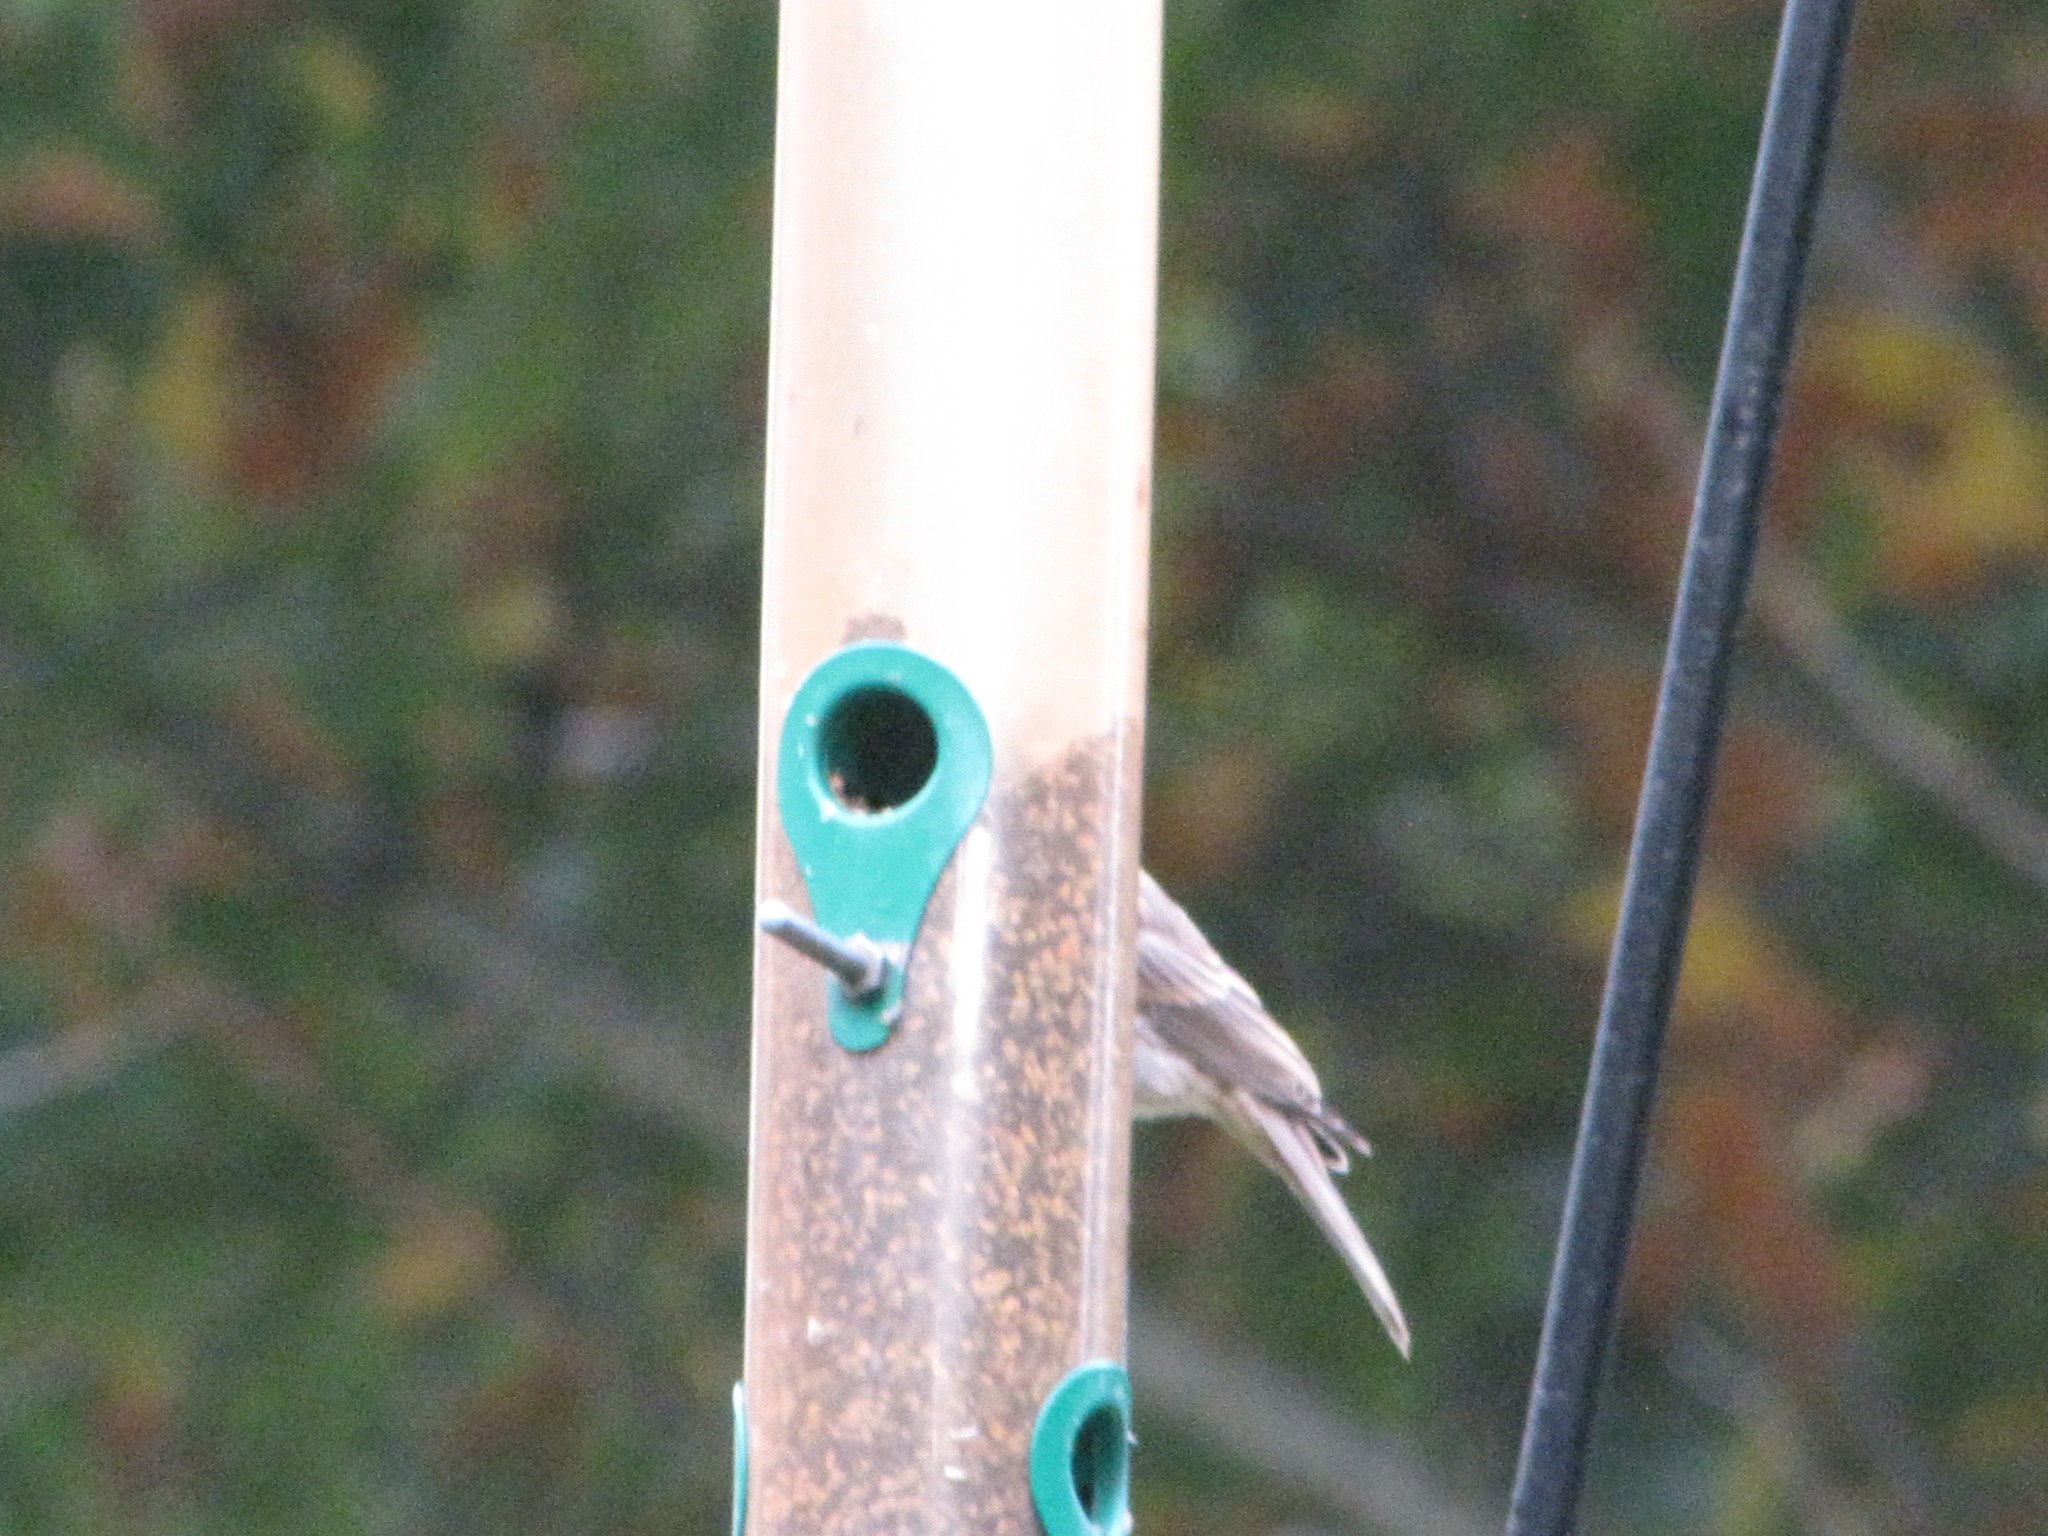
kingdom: Animalia
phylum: Chordata
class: Aves
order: Passeriformes
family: Fringillidae
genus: Haemorhous
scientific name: Haemorhous mexicanus
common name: House finch
